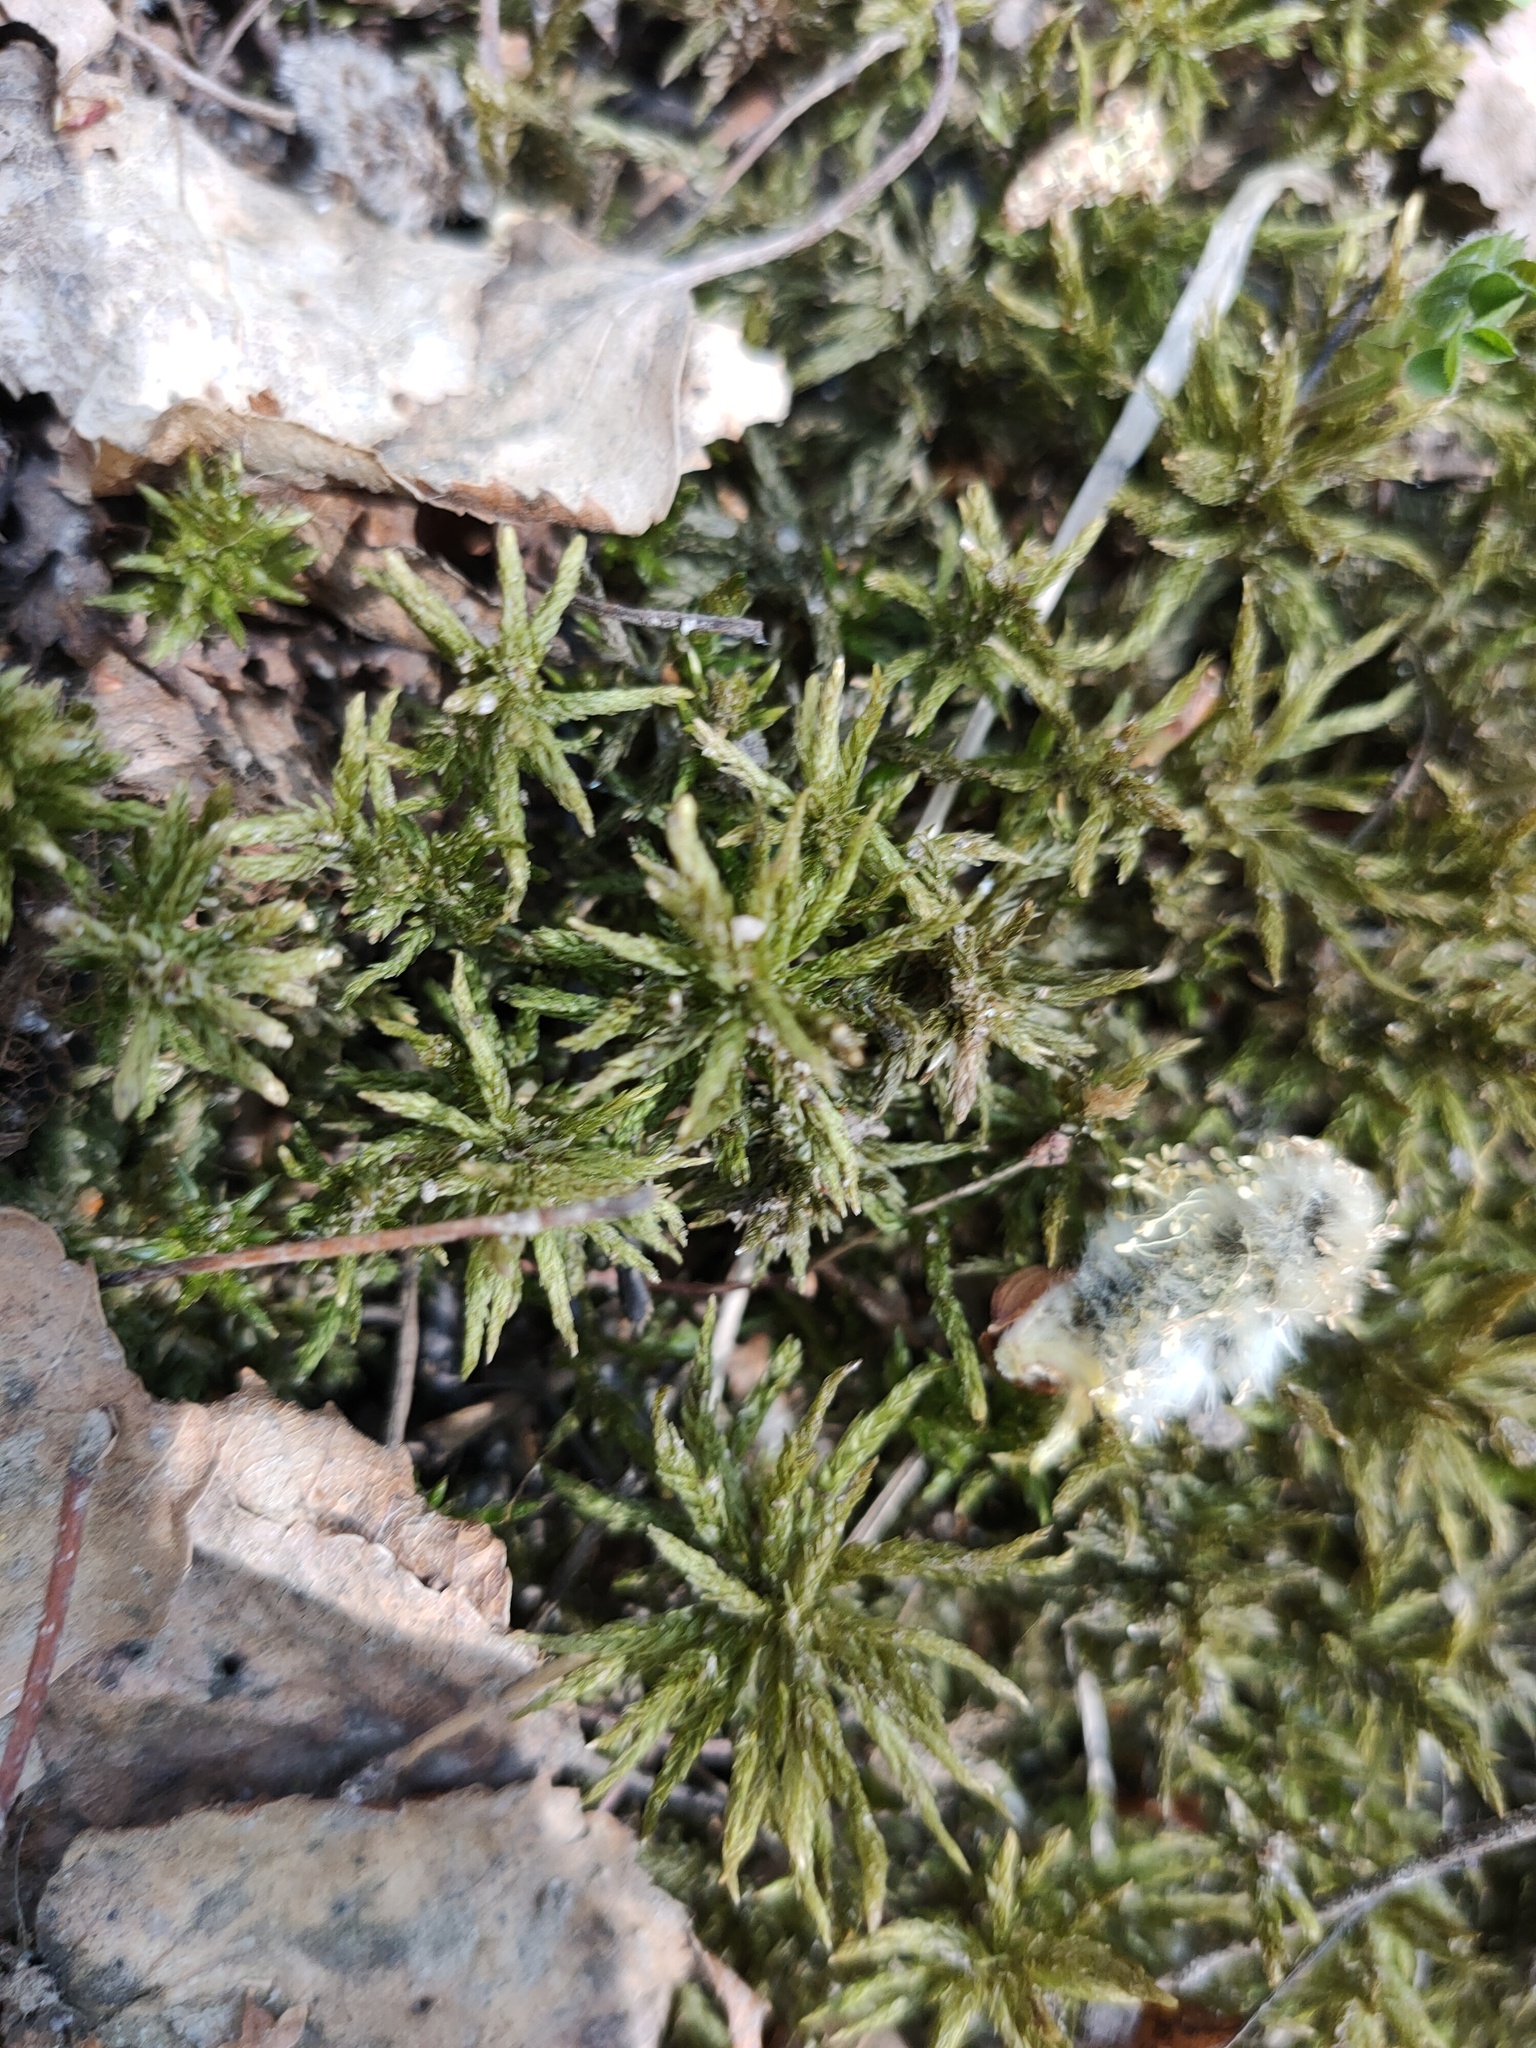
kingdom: Plantae
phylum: Bryophyta
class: Bryopsida
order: Hypnales
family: Climaciaceae
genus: Climacium
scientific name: Climacium dendroides
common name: Northern tree moss
